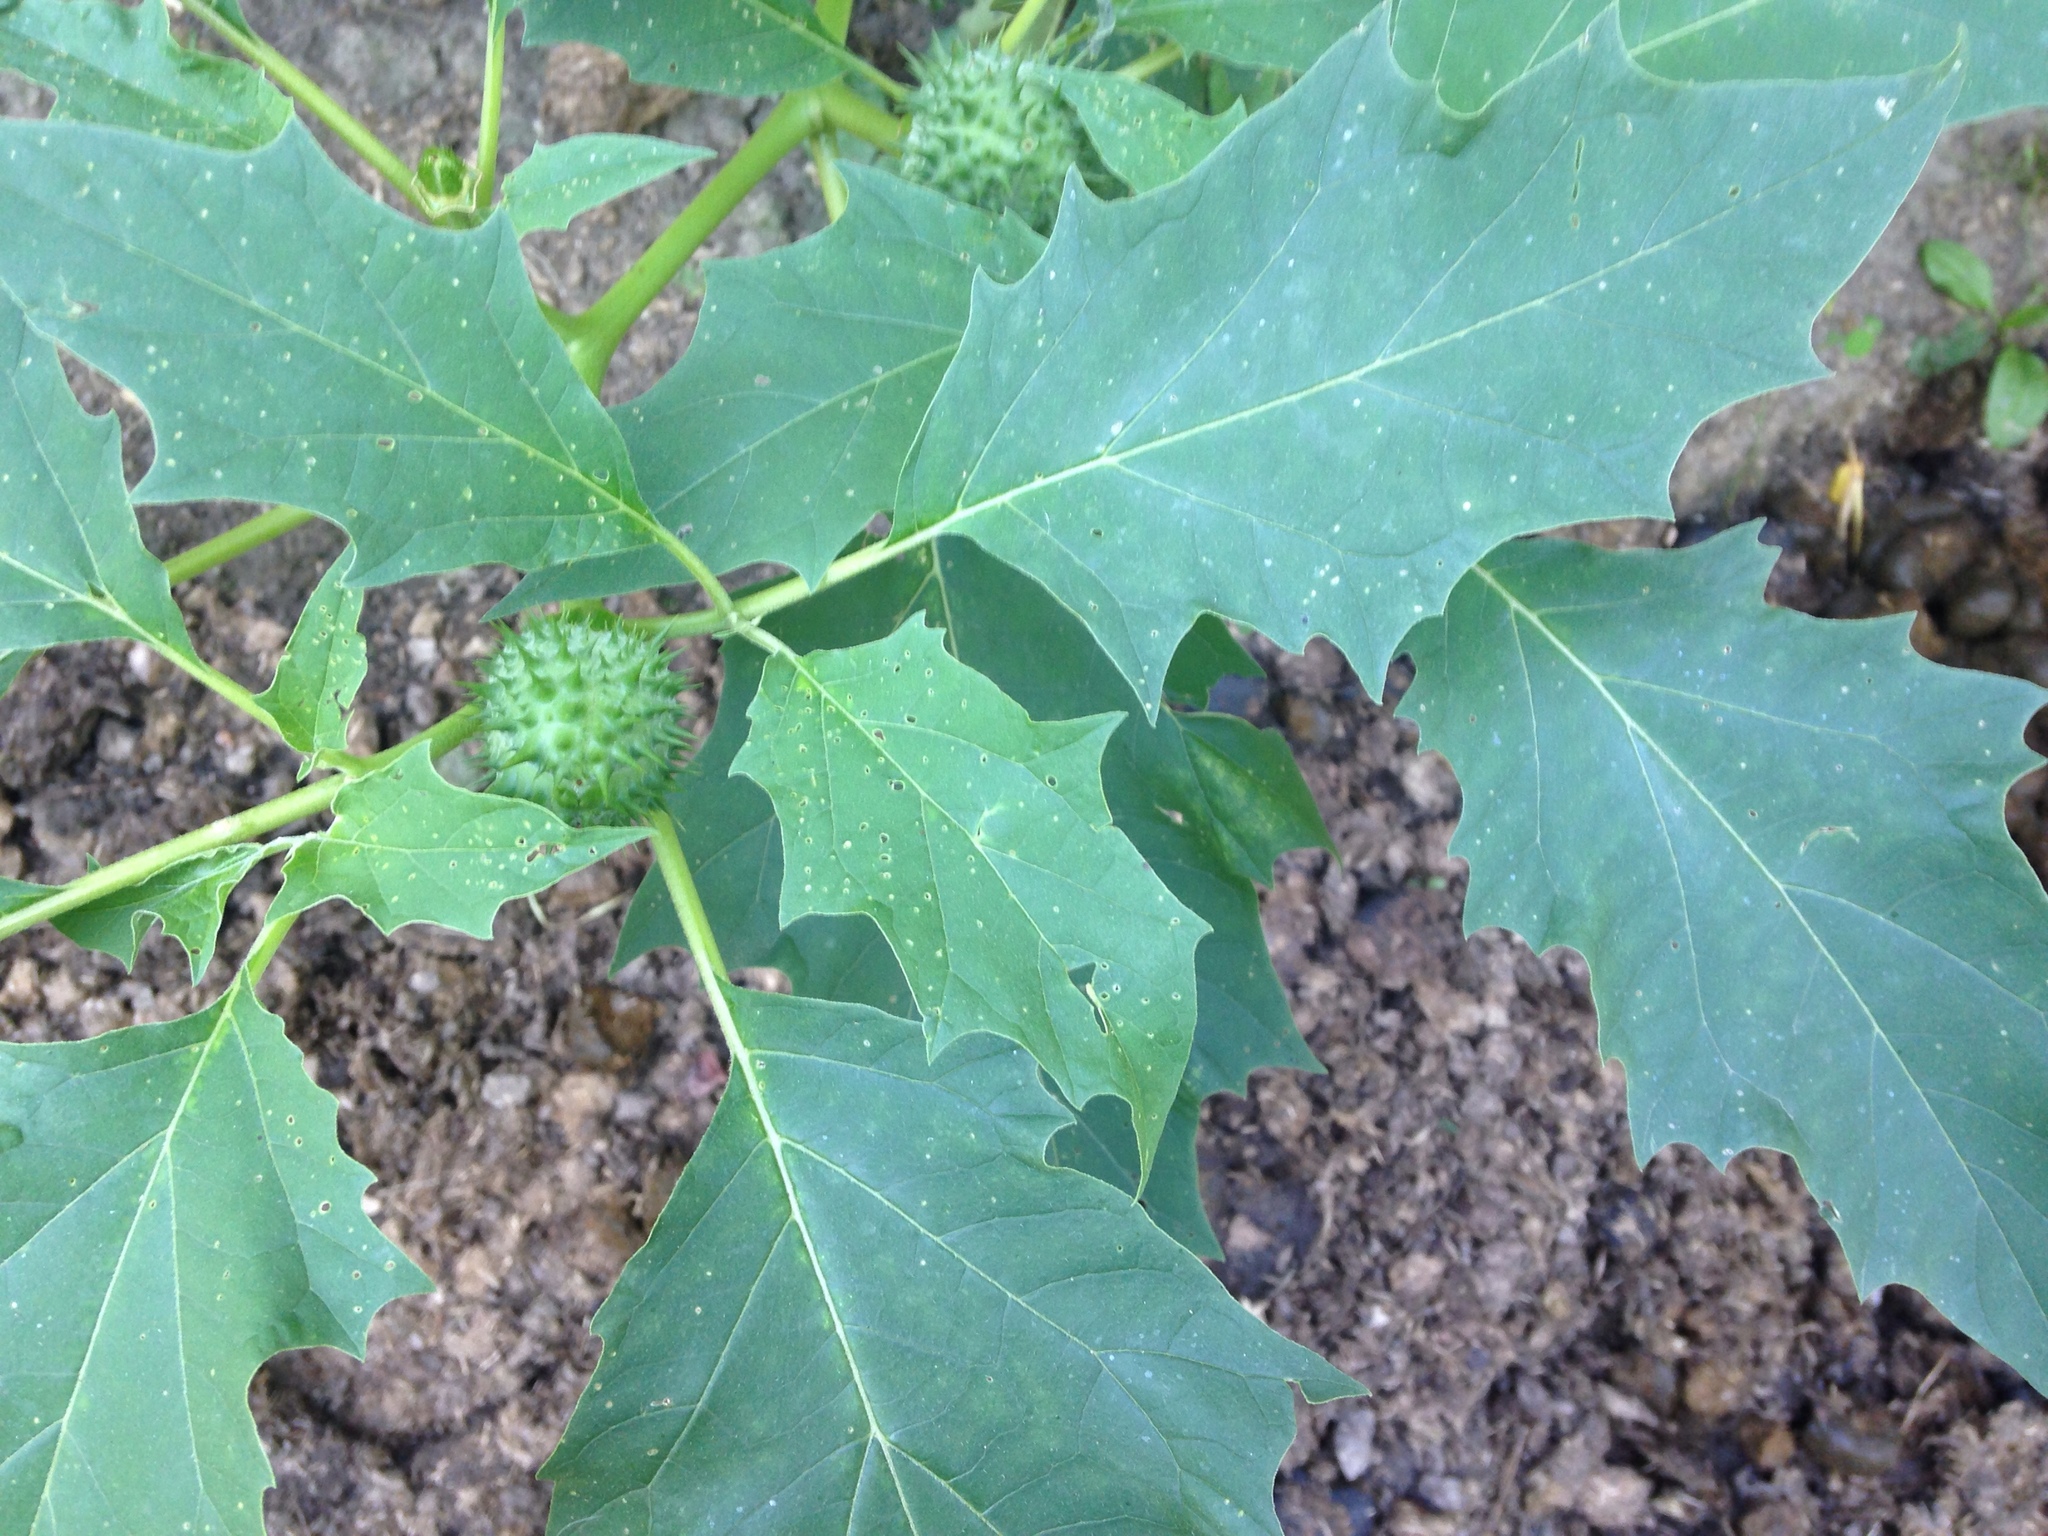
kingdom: Plantae
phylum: Tracheophyta
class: Magnoliopsida
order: Solanales
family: Solanaceae
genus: Datura
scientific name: Datura stramonium
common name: Thorn-apple
